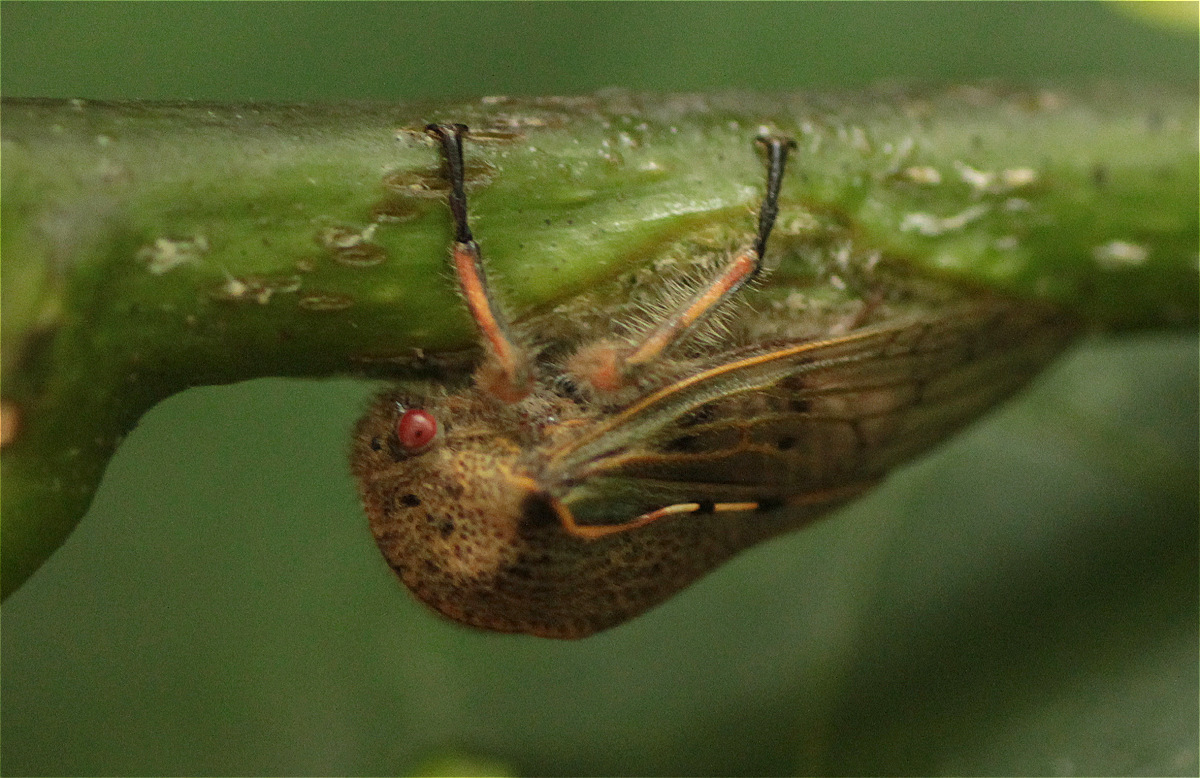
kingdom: Animalia
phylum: Arthropoda
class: Insecta
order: Hemiptera
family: Membracidae
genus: Metcalfiella
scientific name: Metcalfiella jaramillorum
